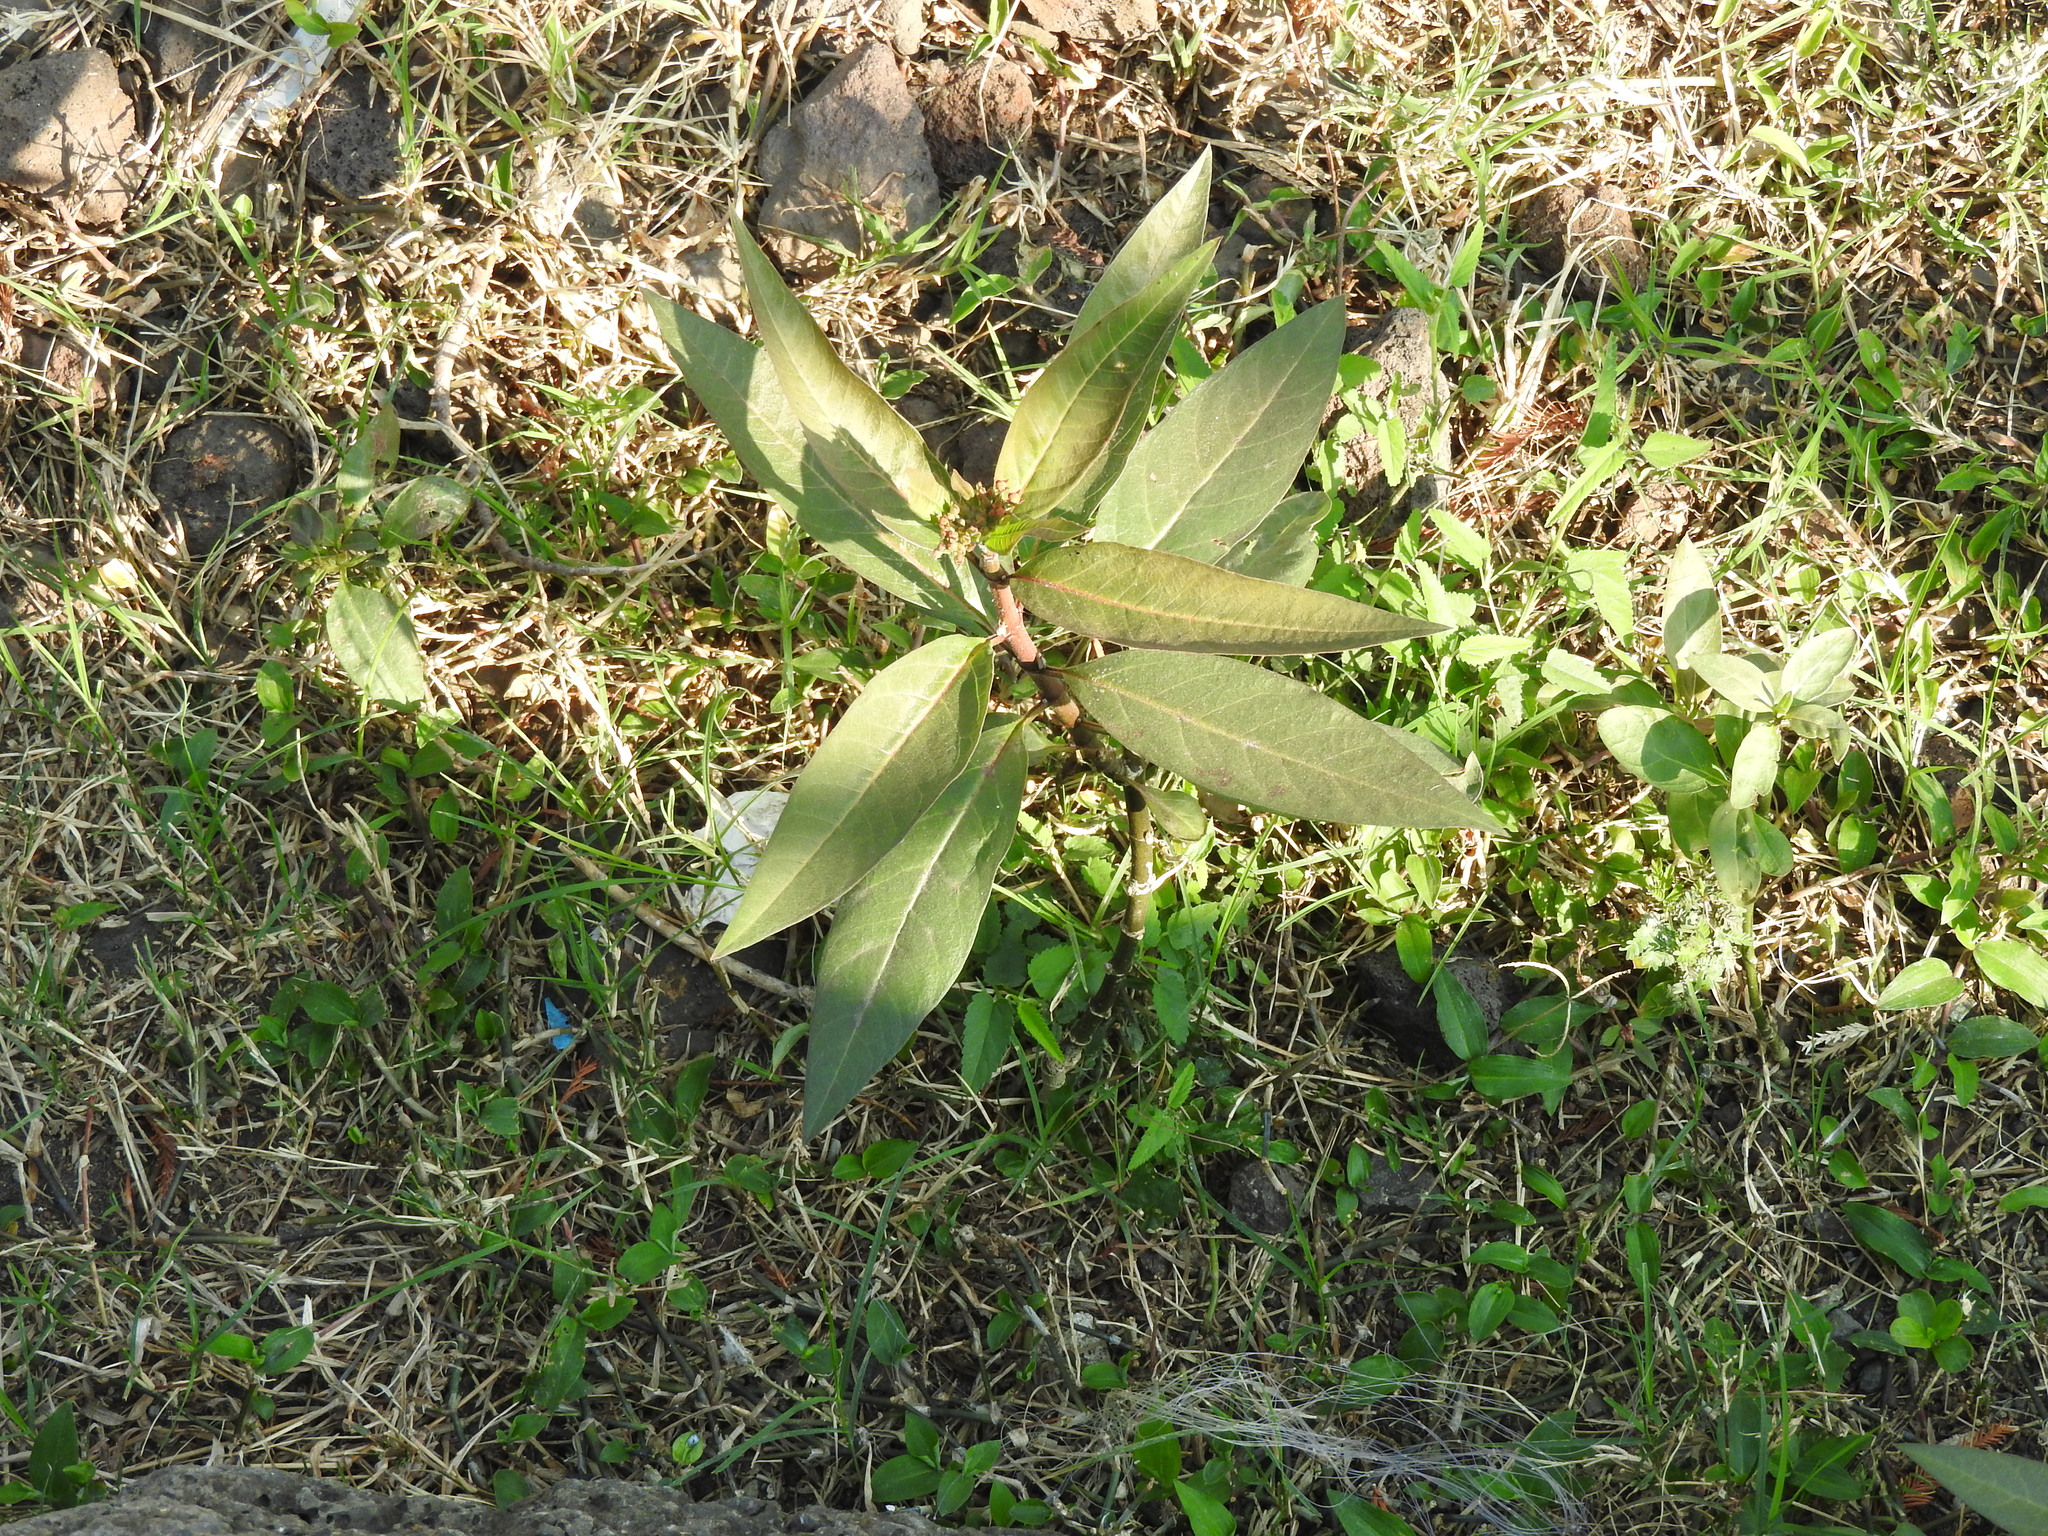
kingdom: Plantae
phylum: Tracheophyta
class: Magnoliopsida
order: Gentianales
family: Apocynaceae
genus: Asclepias
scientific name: Asclepias curassavica
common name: Bloodflower
